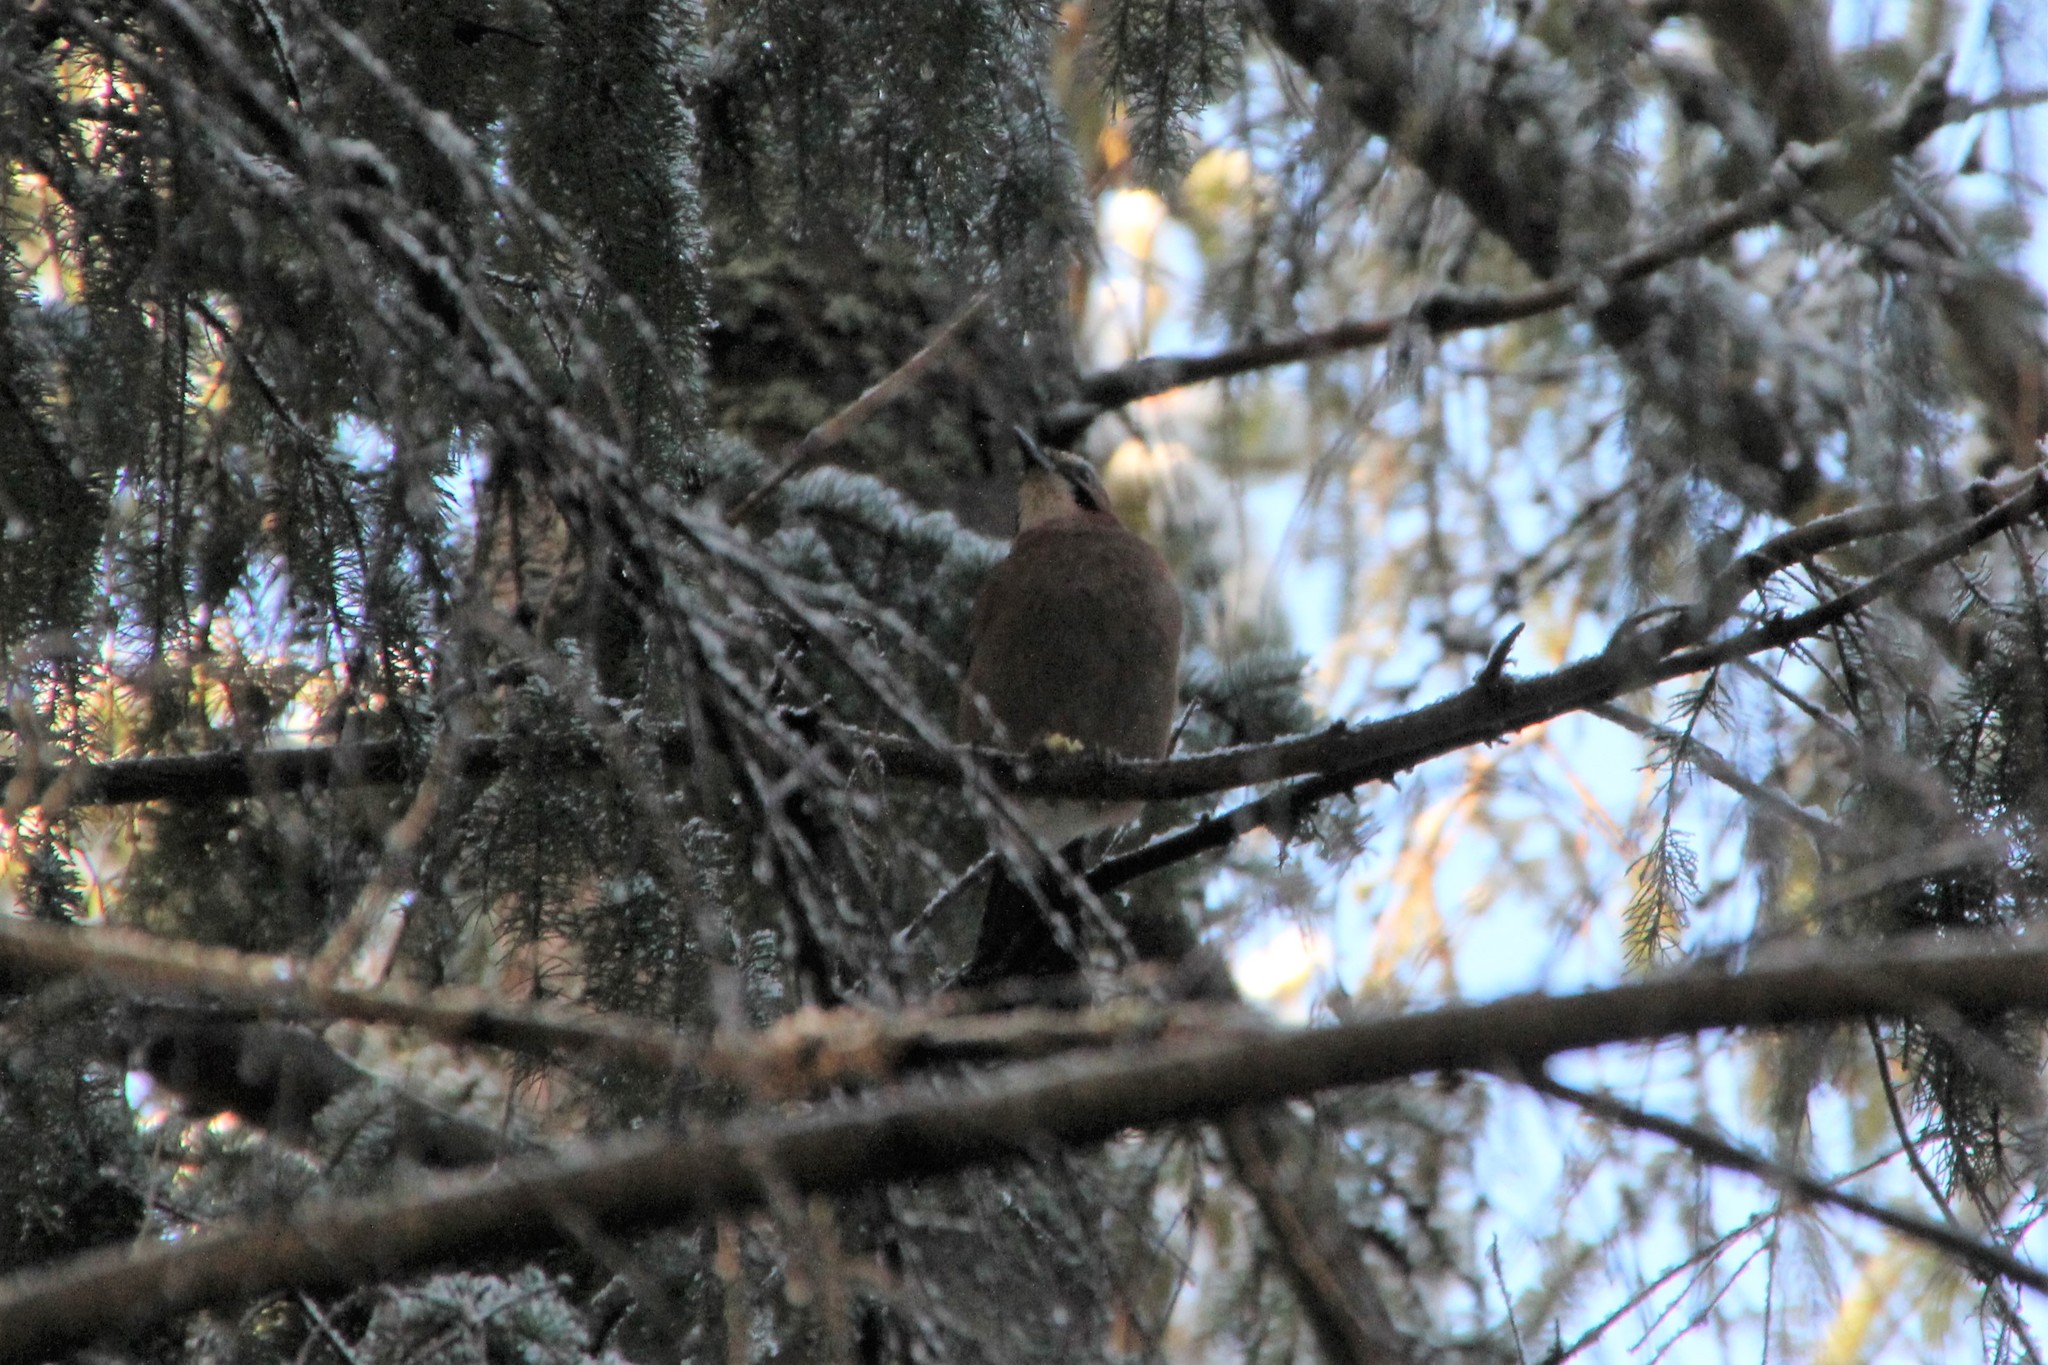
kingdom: Animalia
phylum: Chordata
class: Aves
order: Passeriformes
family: Corvidae
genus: Garrulus
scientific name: Garrulus glandarius
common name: Eurasian jay
